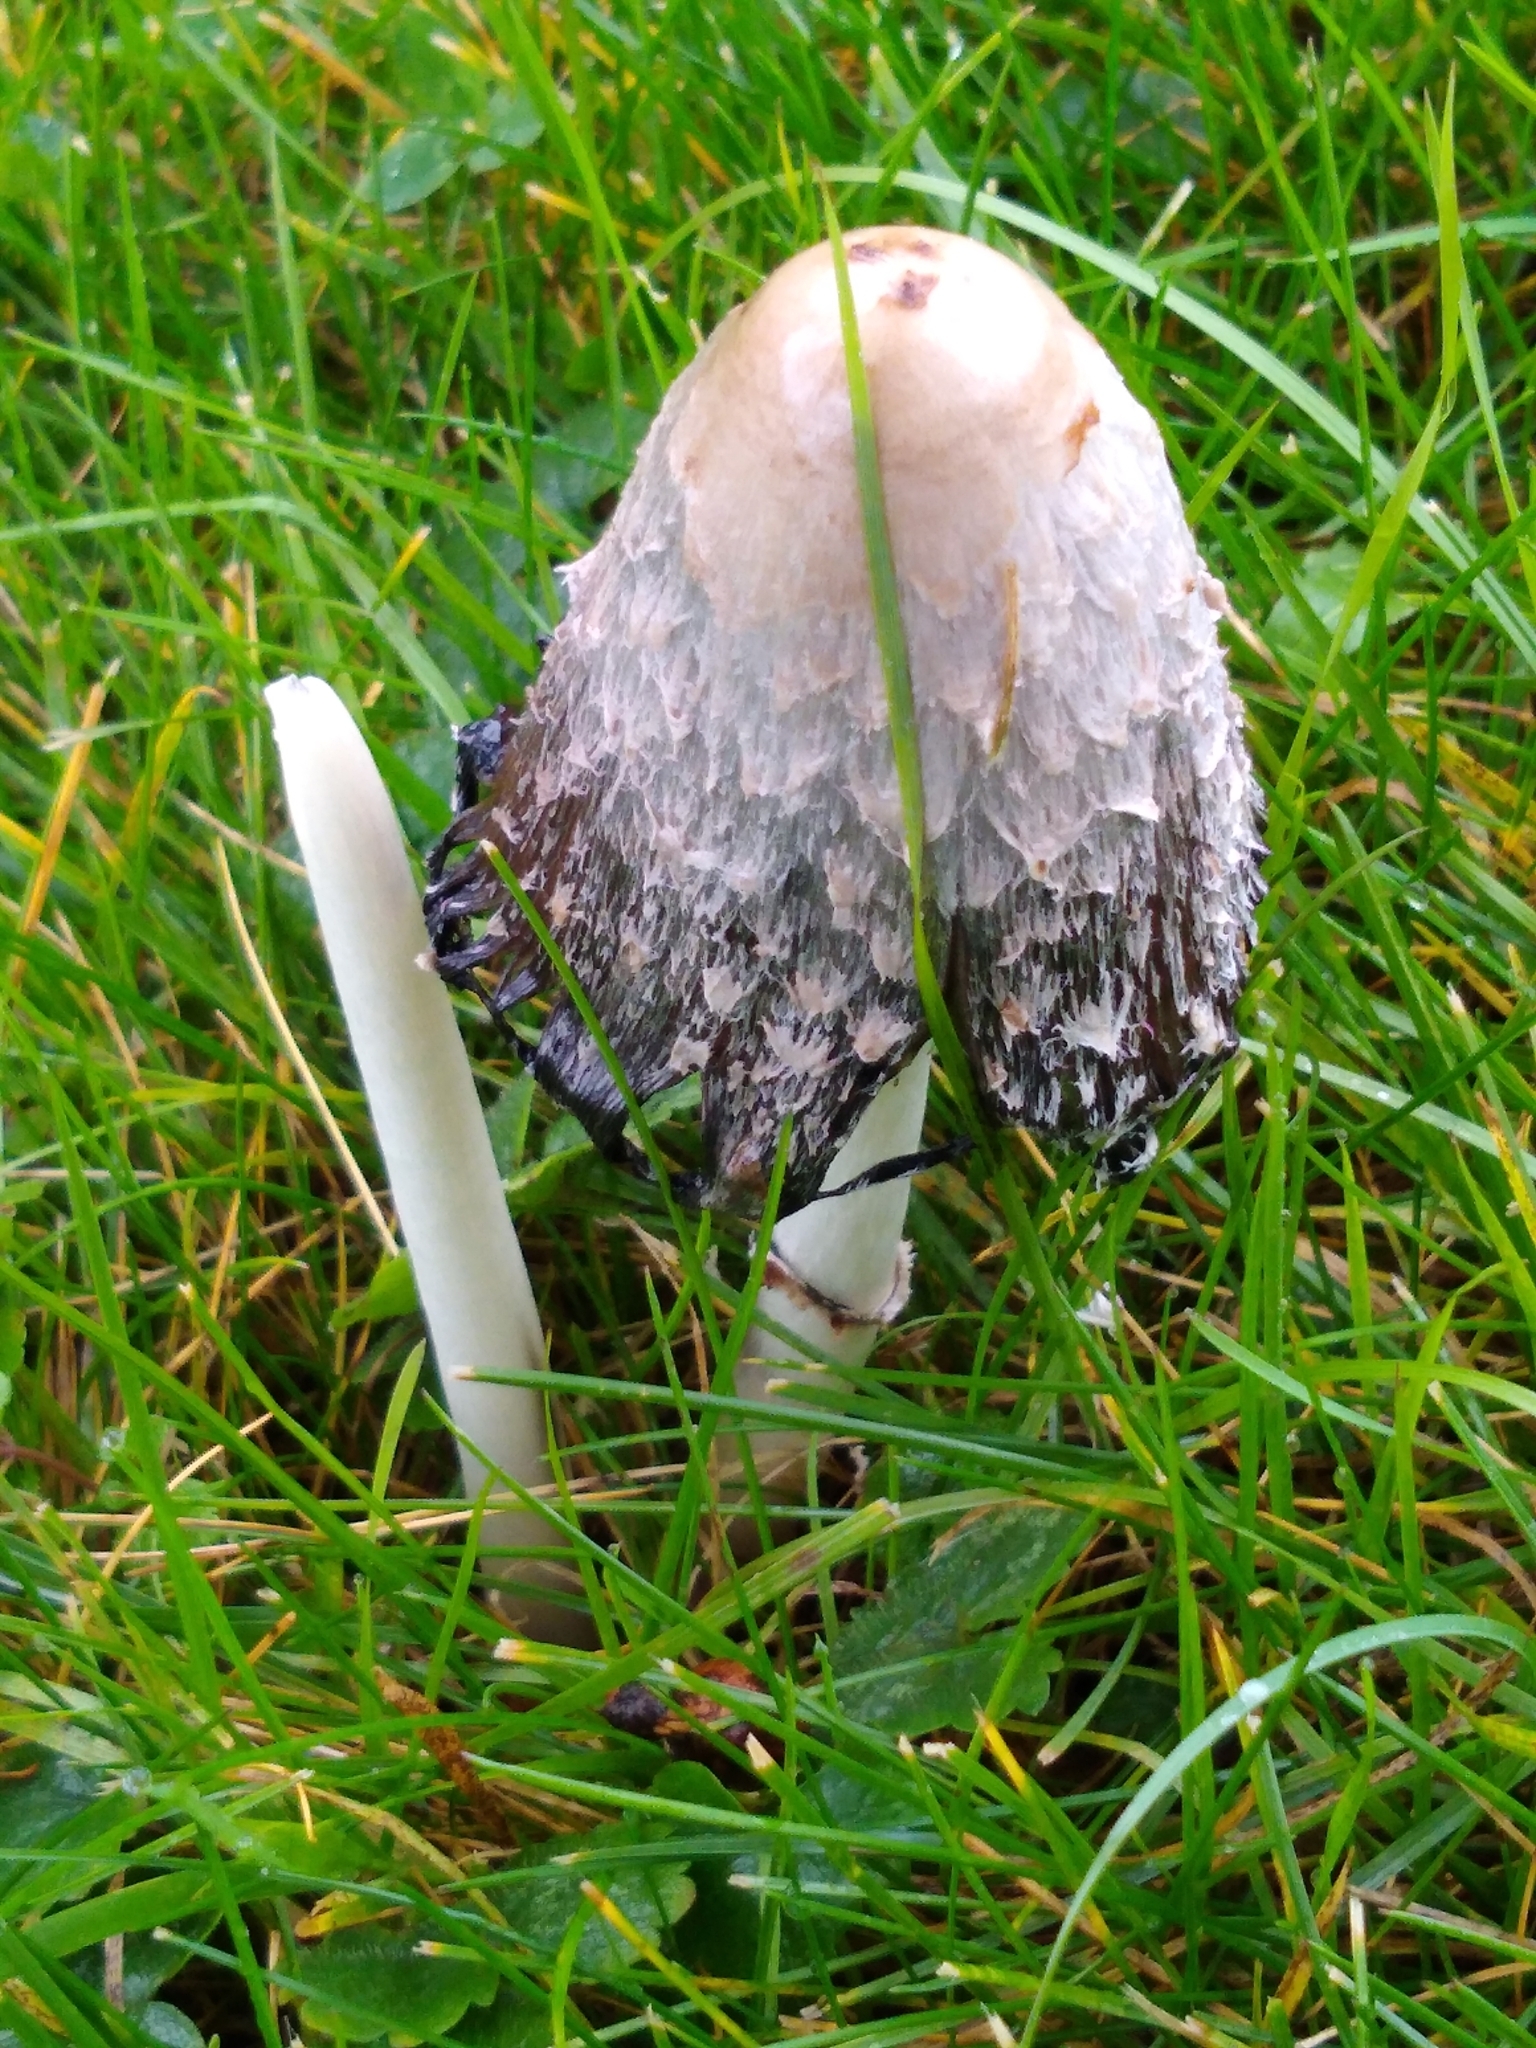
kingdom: Fungi
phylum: Basidiomycota
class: Agaricomycetes
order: Agaricales
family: Agaricaceae
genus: Coprinus
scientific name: Coprinus comatus
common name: Lawyer's wig
